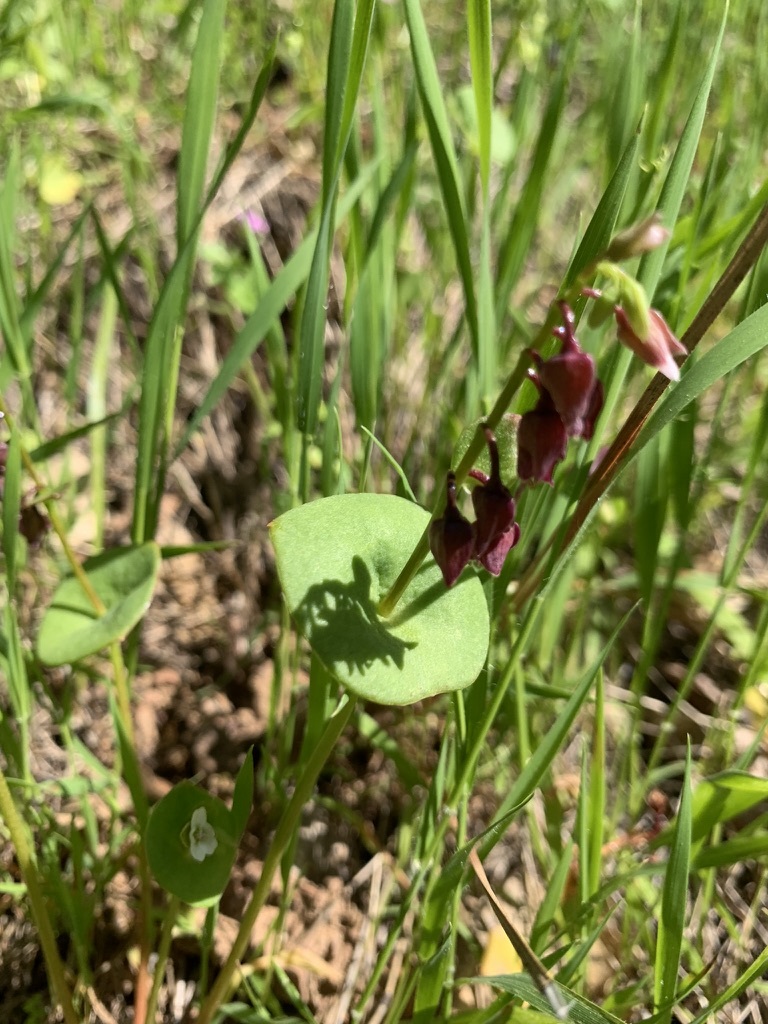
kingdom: Plantae
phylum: Tracheophyta
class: Magnoliopsida
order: Caryophyllales
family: Montiaceae
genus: Claytonia
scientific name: Claytonia perfoliata
